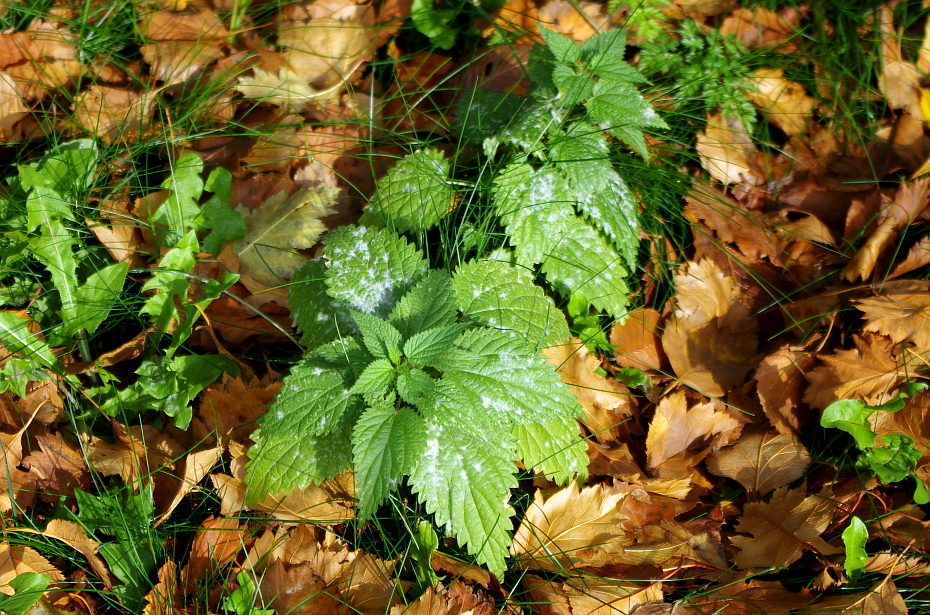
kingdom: Plantae
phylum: Tracheophyta
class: Magnoliopsida
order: Rosales
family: Urticaceae
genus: Urtica
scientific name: Urtica dioica
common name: Common nettle
